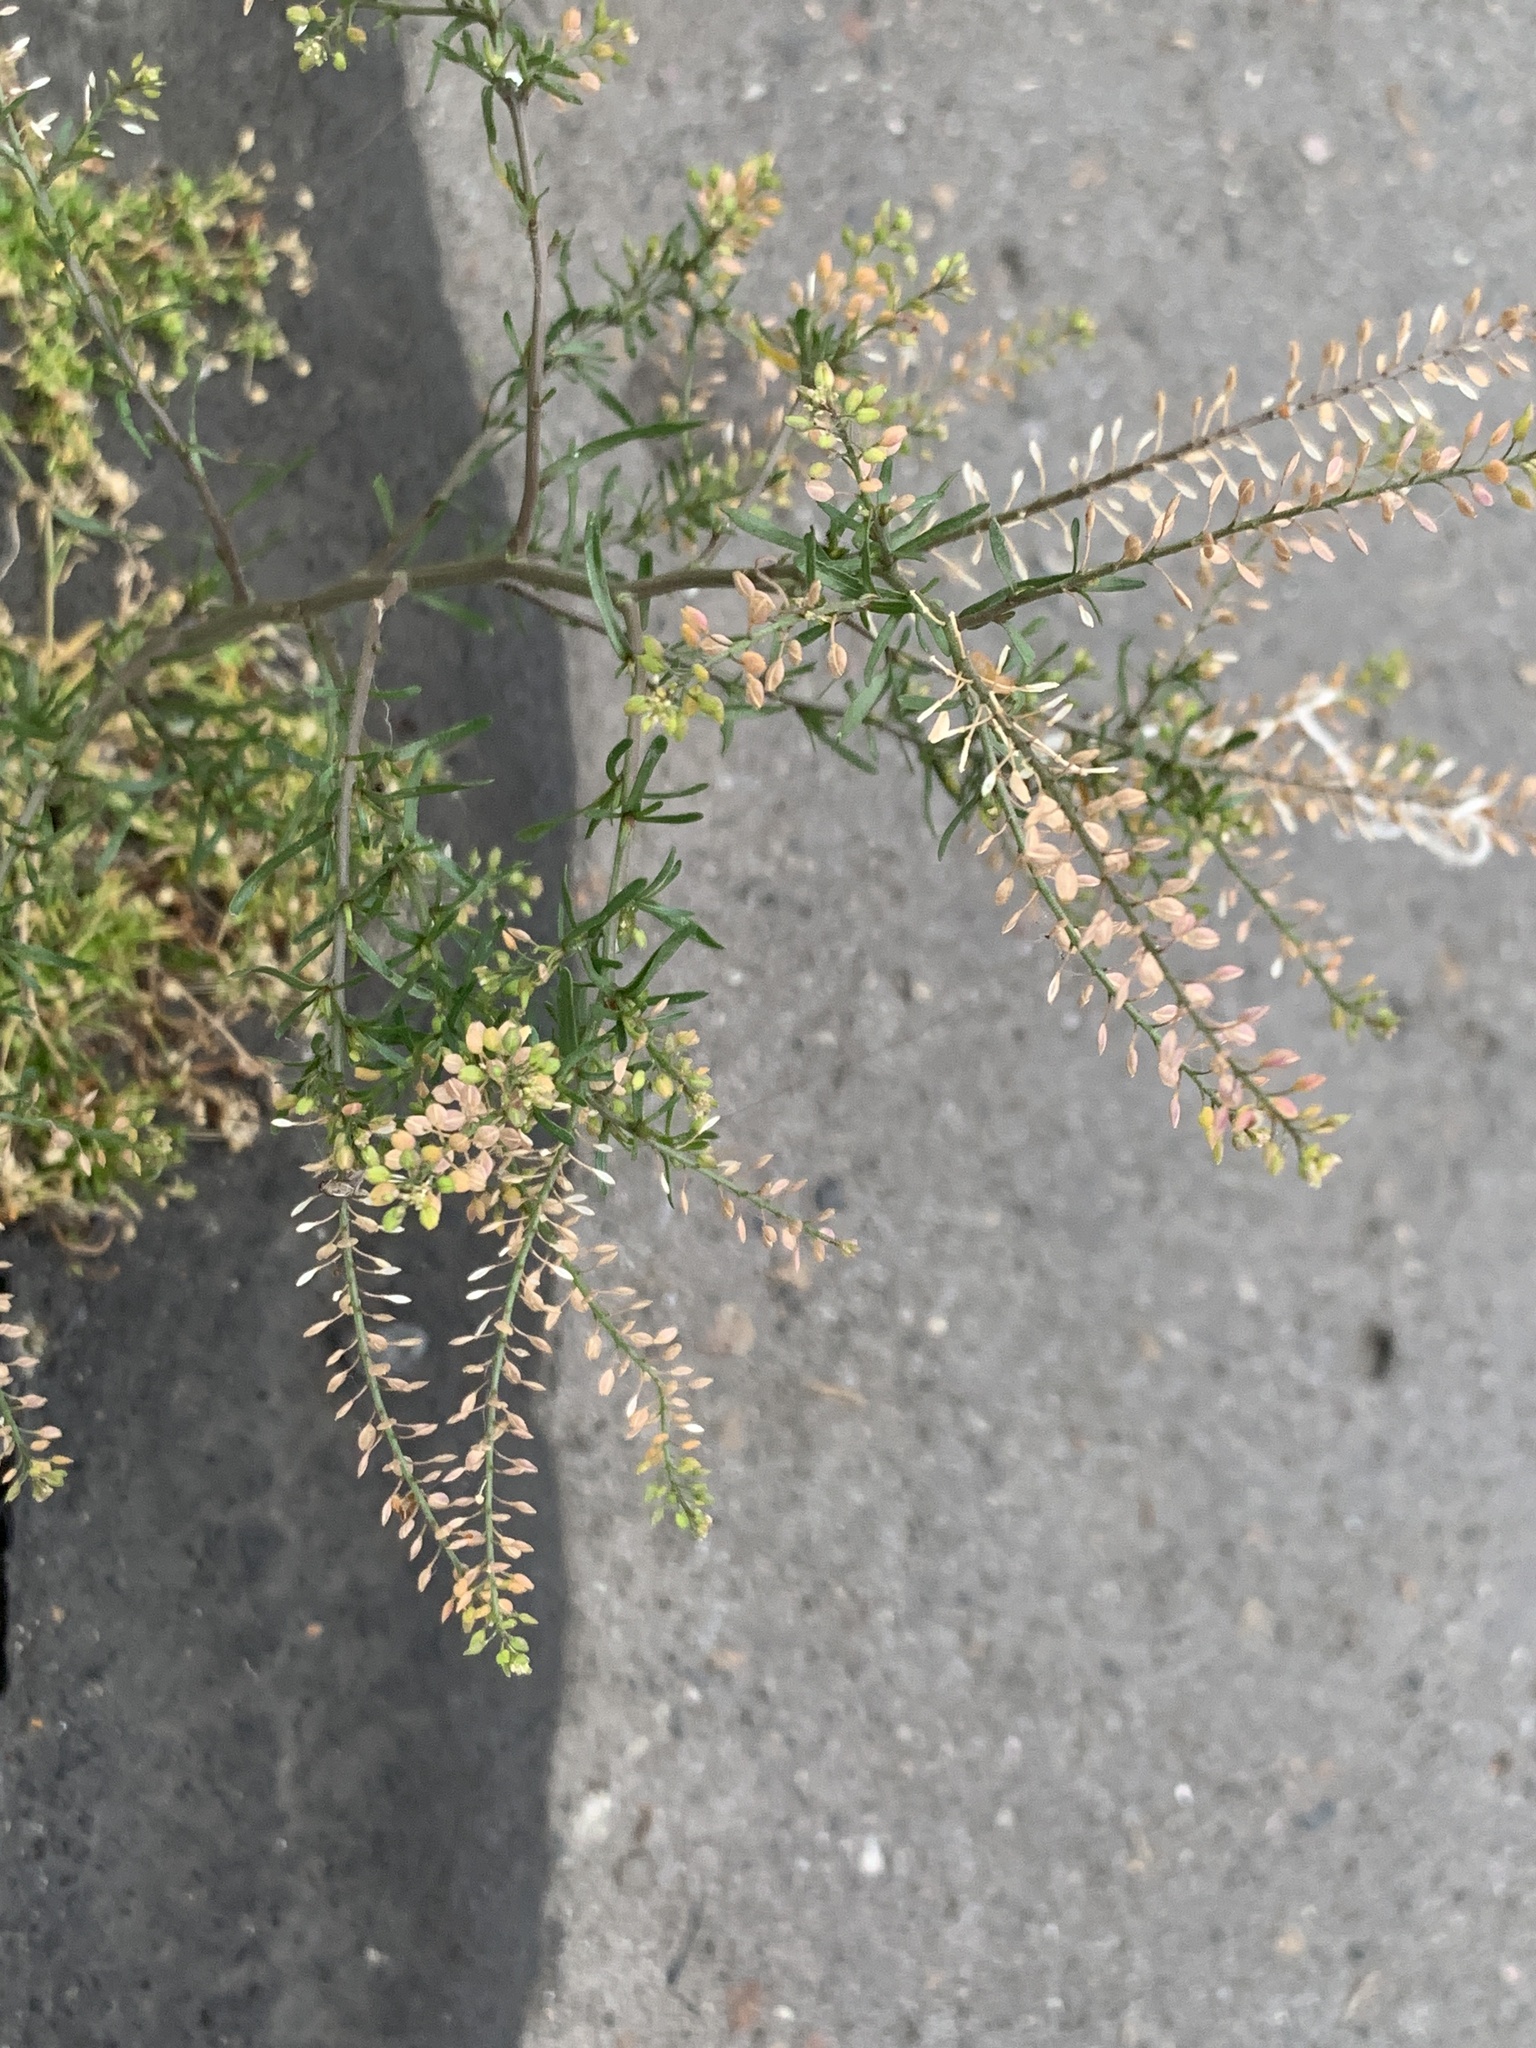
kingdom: Plantae
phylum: Tracheophyta
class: Magnoliopsida
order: Brassicales
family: Brassicaceae
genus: Lepidium
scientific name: Lepidium ruderale
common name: Narrow-leaved pepperwort
